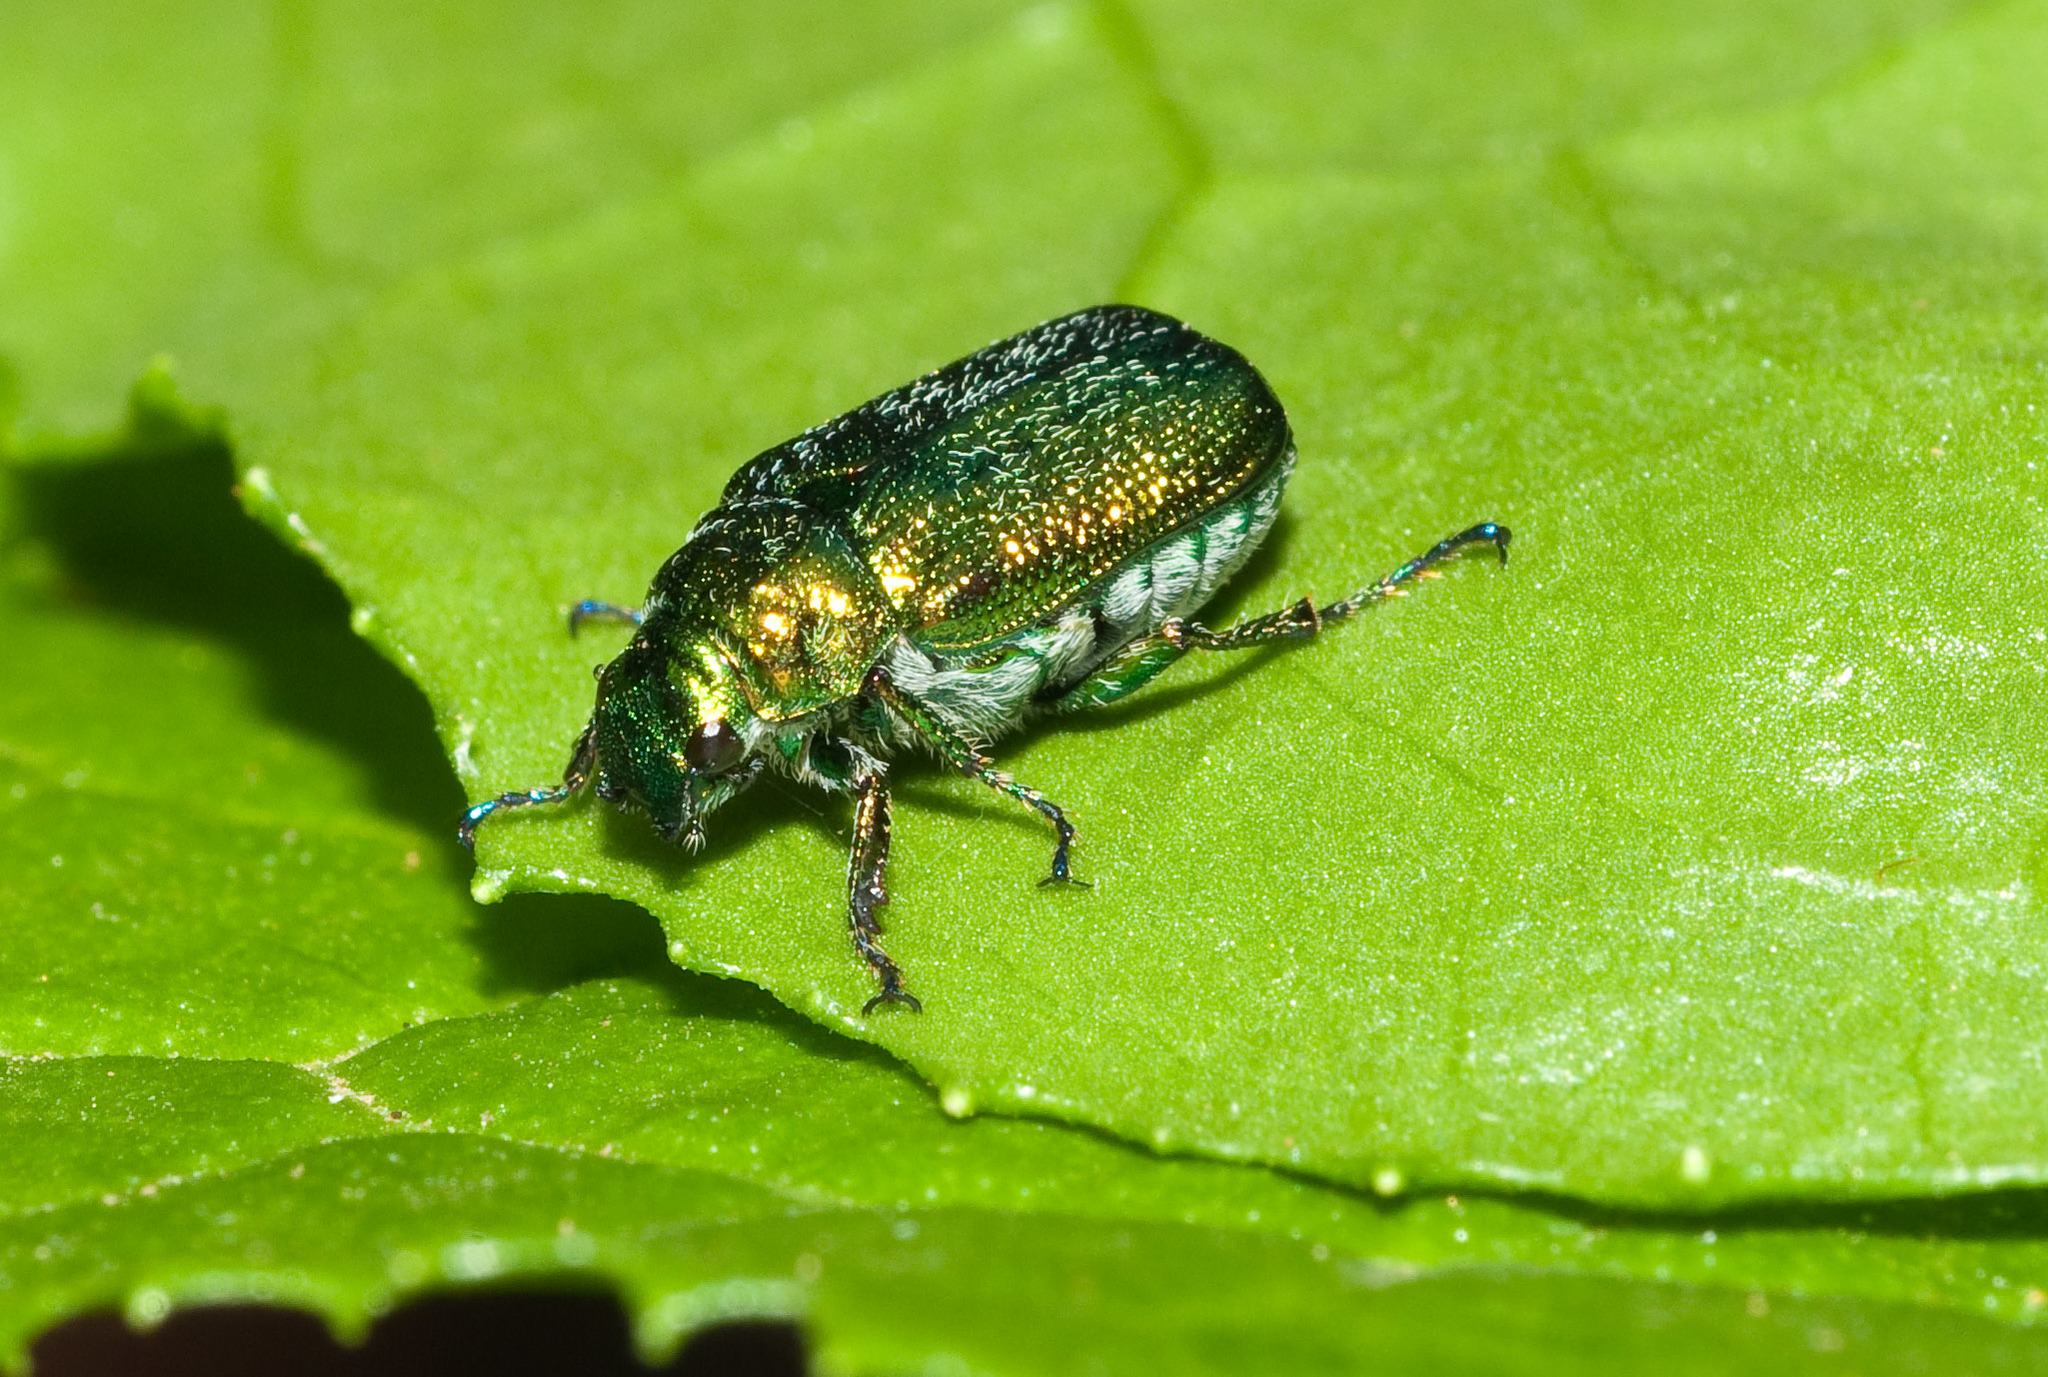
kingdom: Animalia
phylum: Arthropoda
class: Insecta
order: Coleoptera
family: Scarabaeidae
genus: Diphucephala
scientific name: Diphucephala
